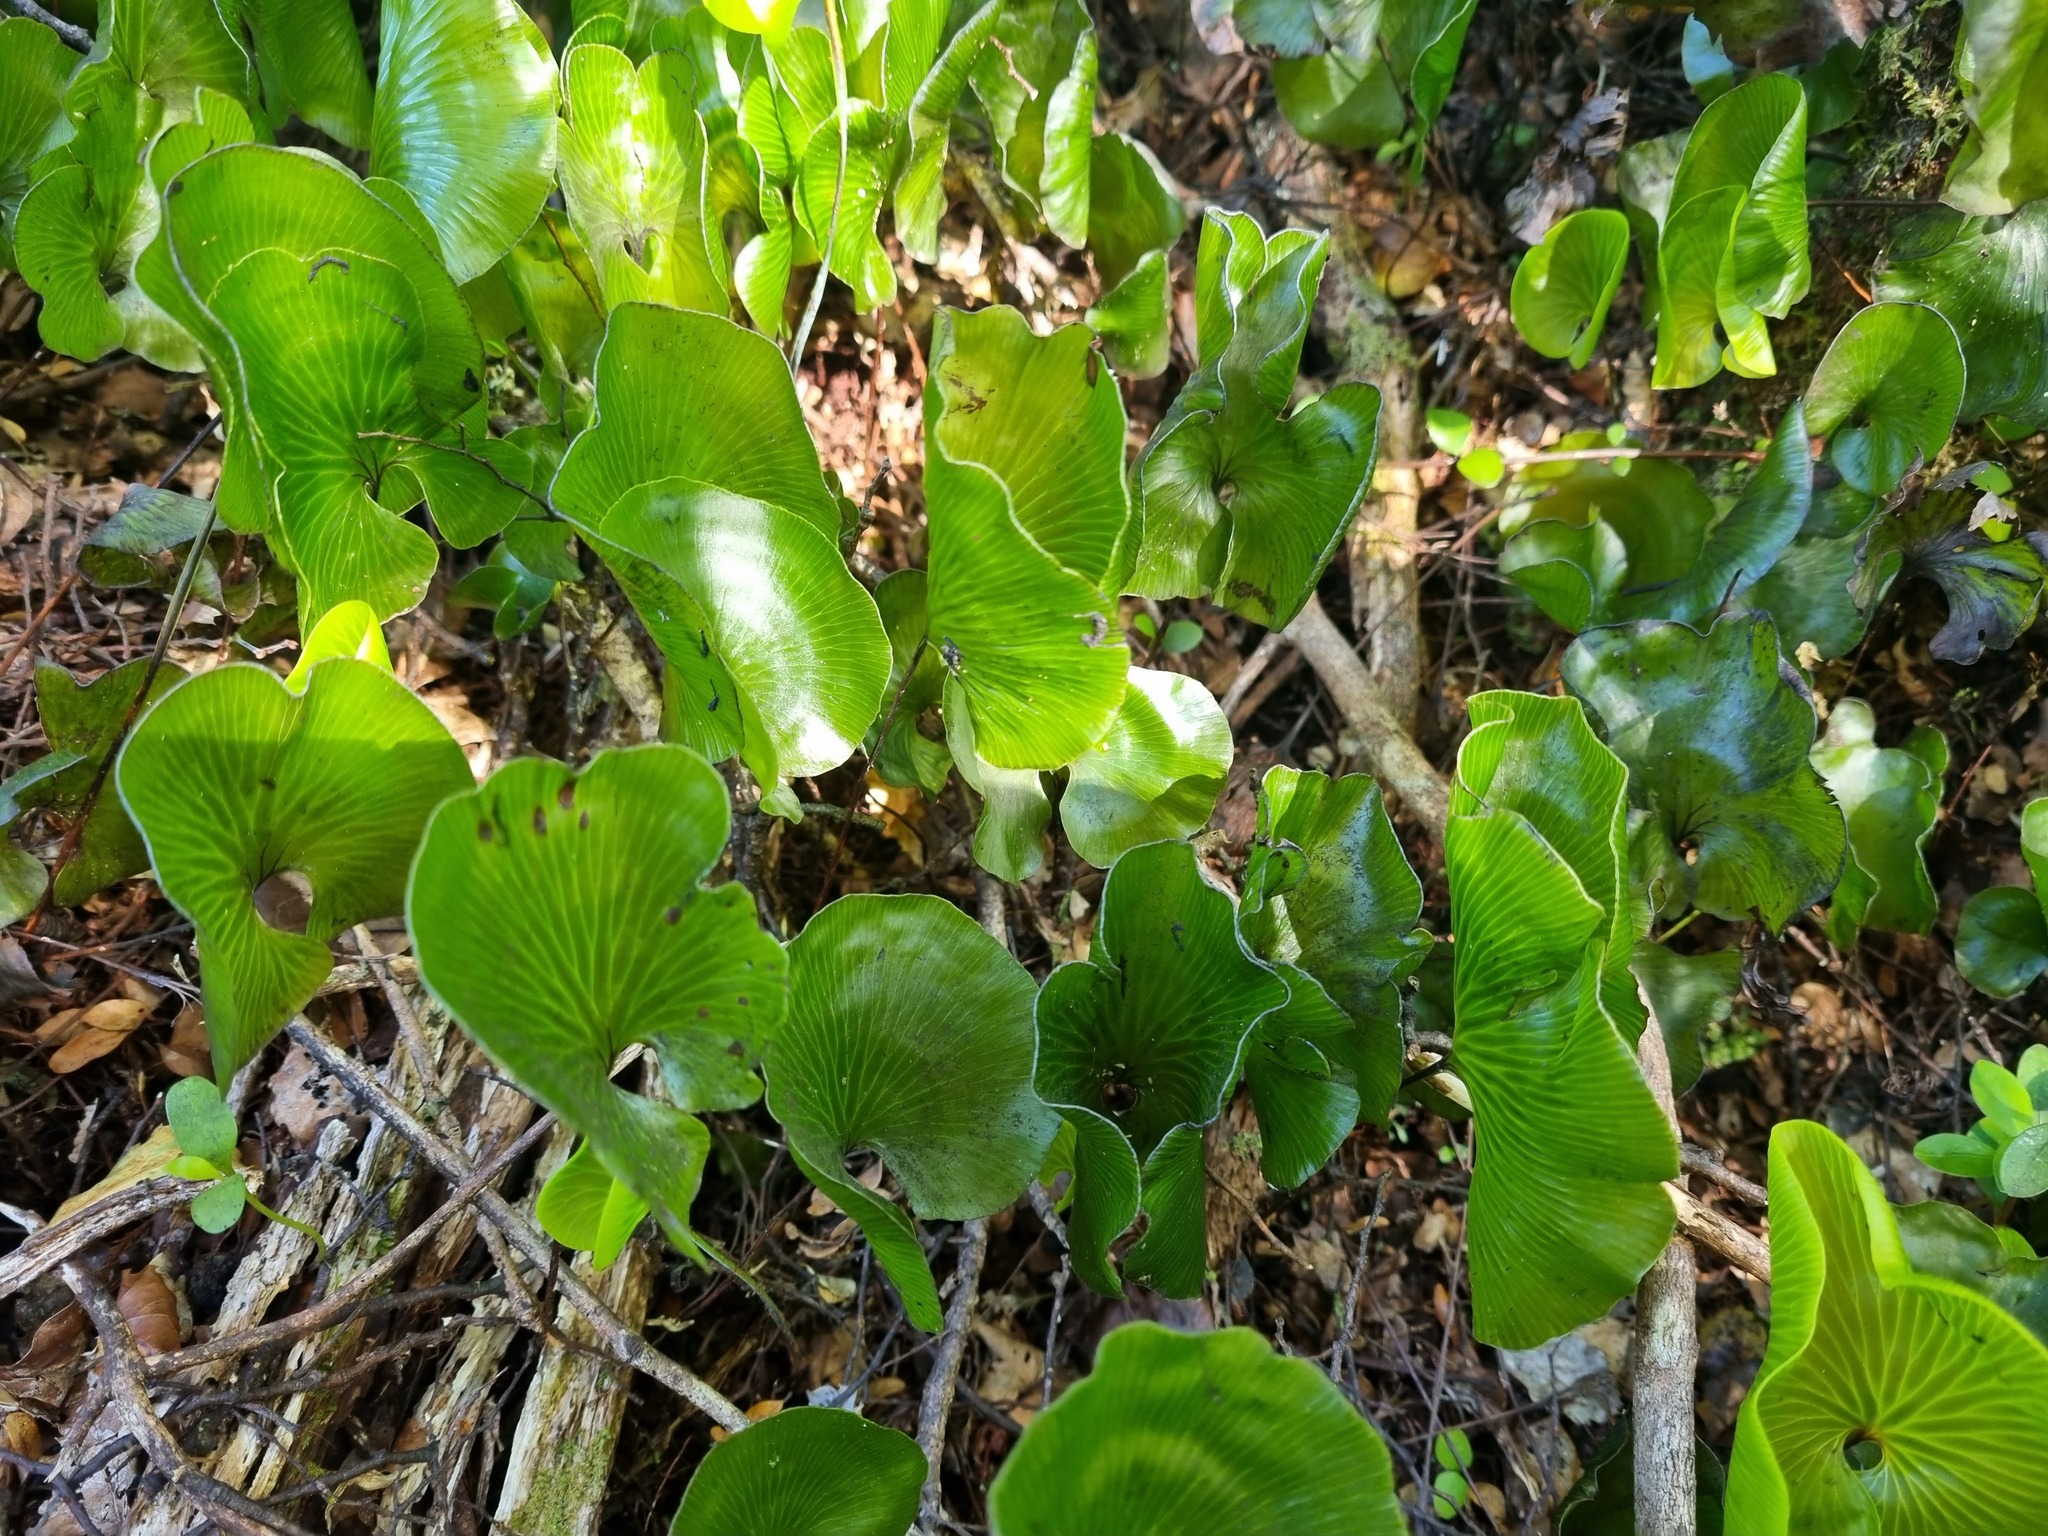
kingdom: Plantae
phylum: Tracheophyta
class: Polypodiopsida
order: Hymenophyllales
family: Hymenophyllaceae
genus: Hymenophyllum
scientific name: Hymenophyllum nephrophyllum
